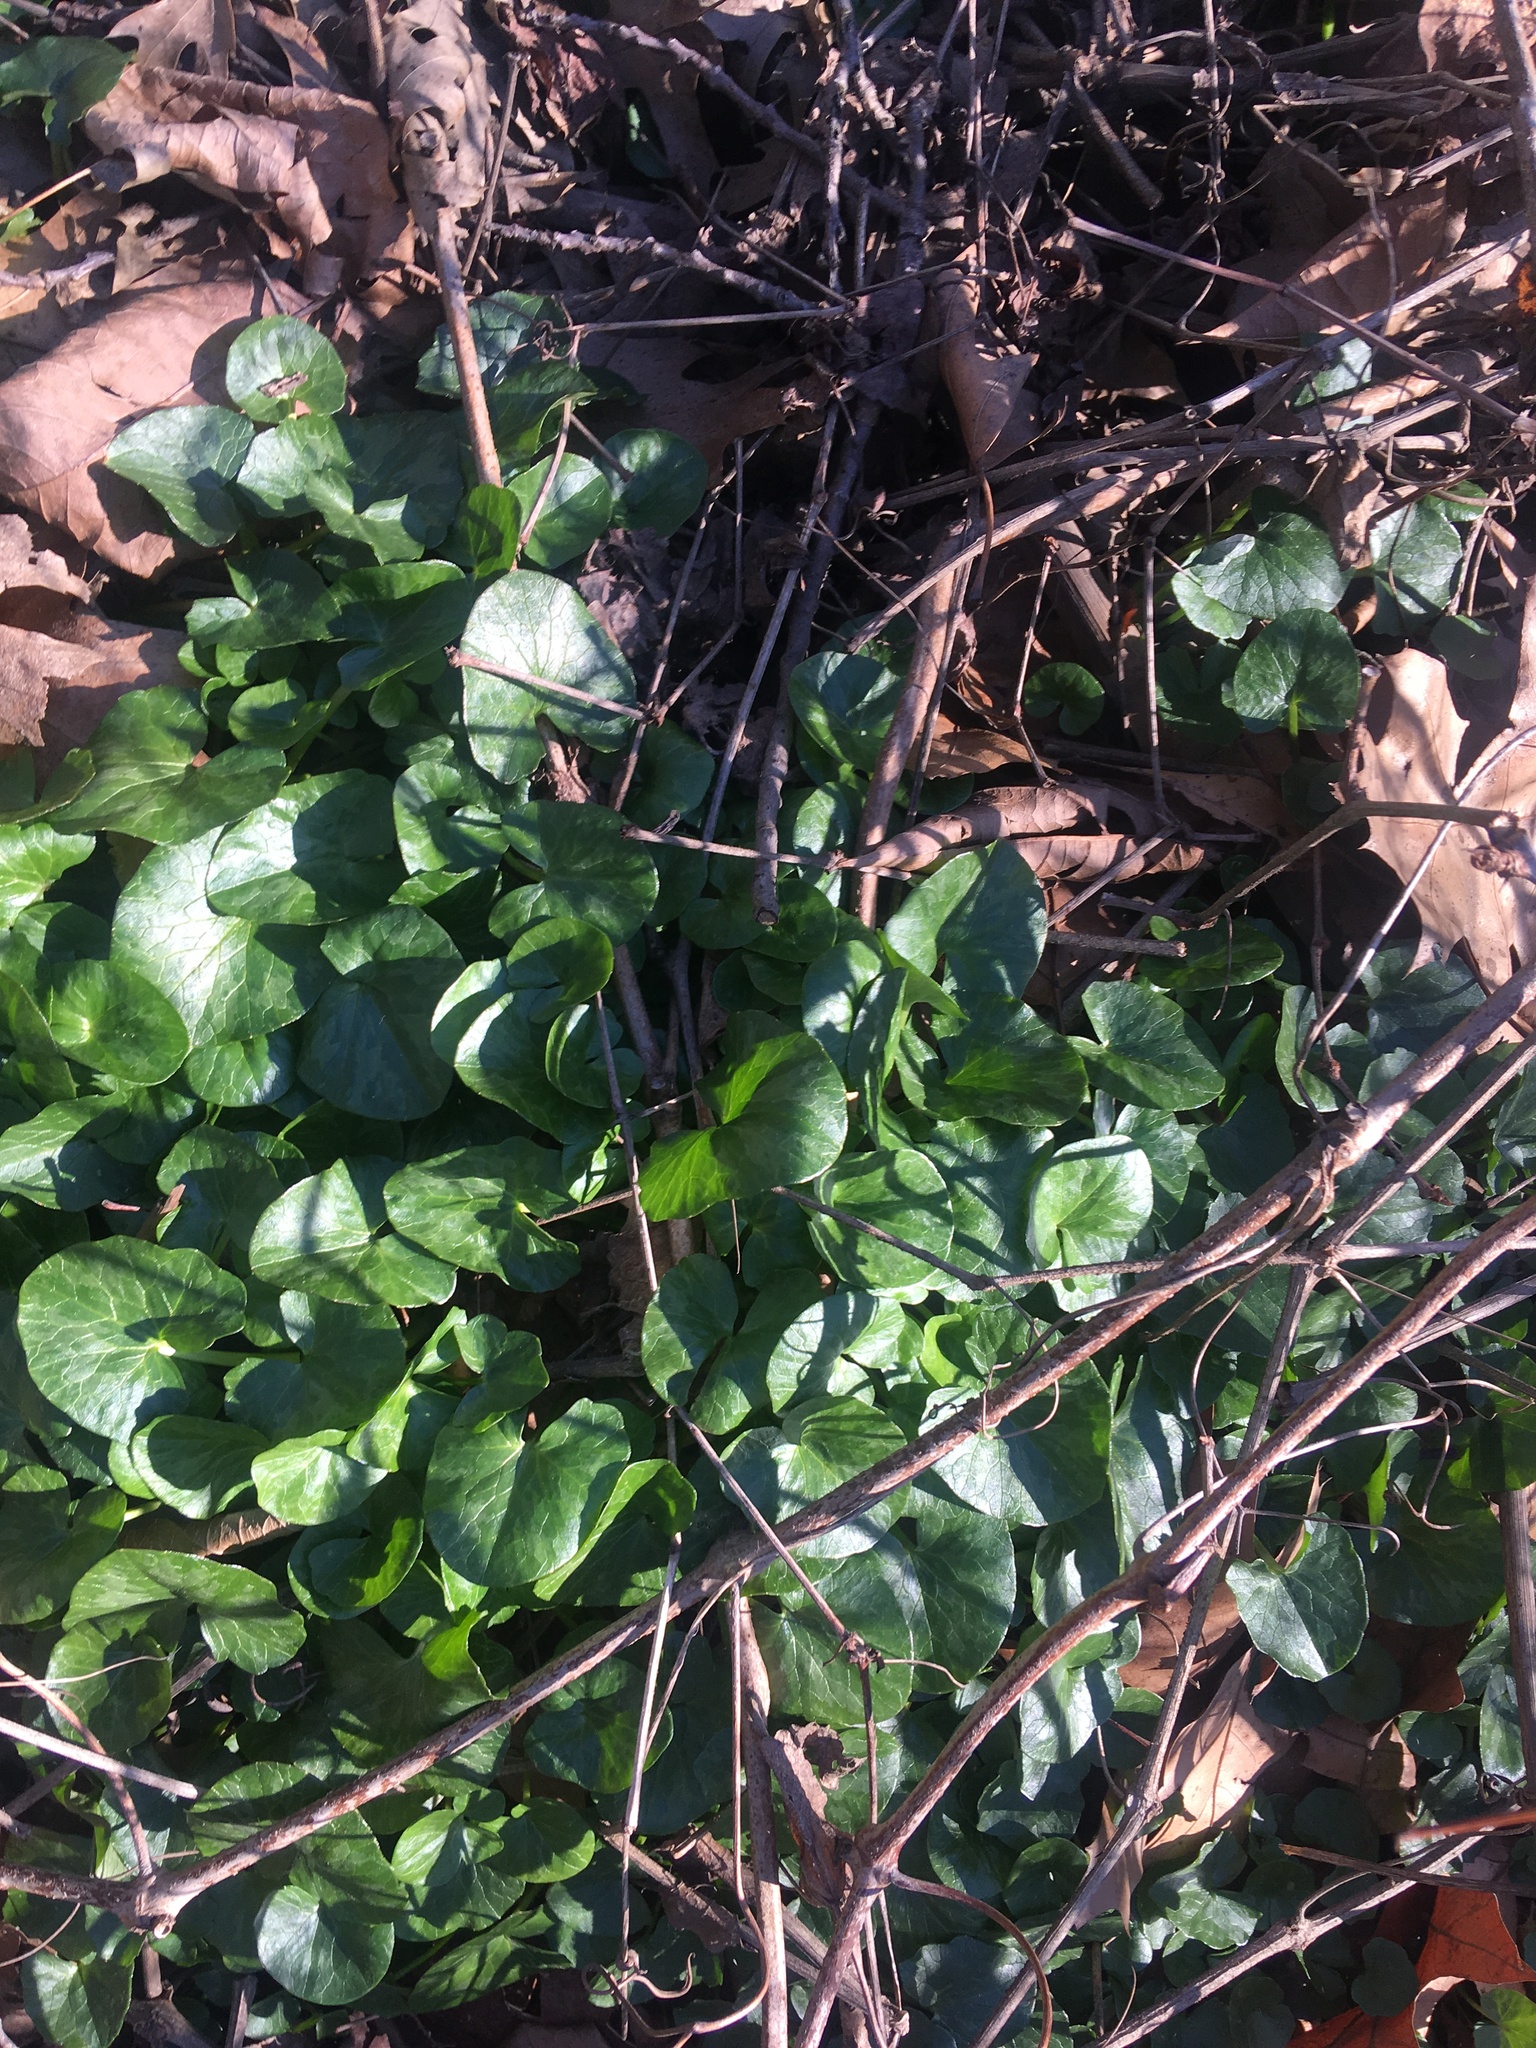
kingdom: Plantae
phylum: Tracheophyta
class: Magnoliopsida
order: Ranunculales
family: Ranunculaceae
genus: Ficaria
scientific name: Ficaria verna
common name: Lesser celandine
